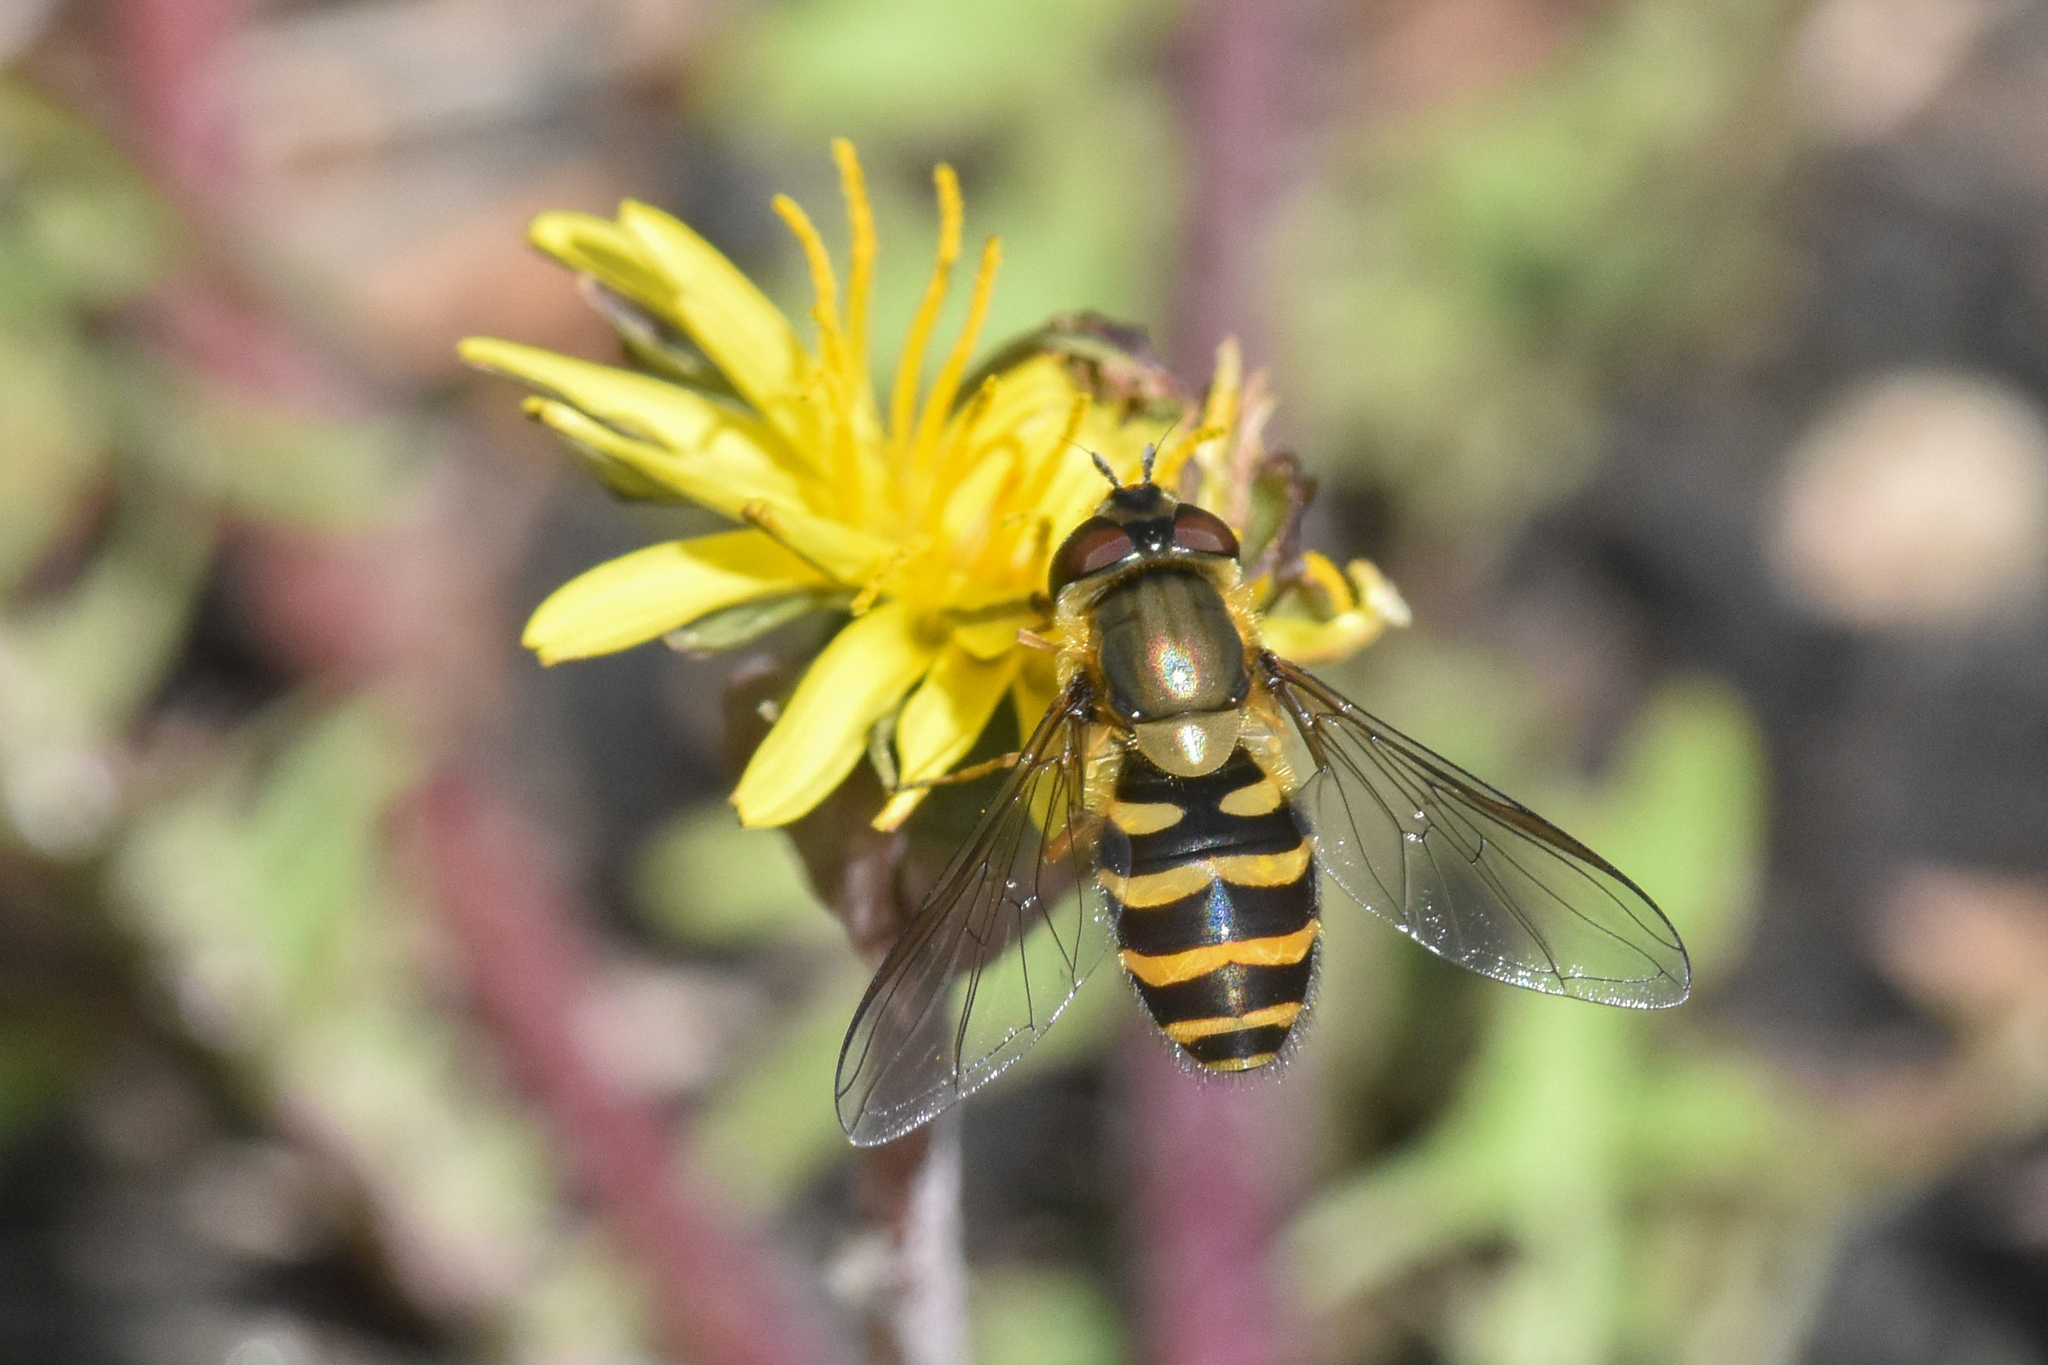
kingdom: Animalia
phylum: Arthropoda
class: Insecta
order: Diptera
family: Syrphidae
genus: Syrphus
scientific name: Syrphus torvus
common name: Hairy-eyed flower fly
